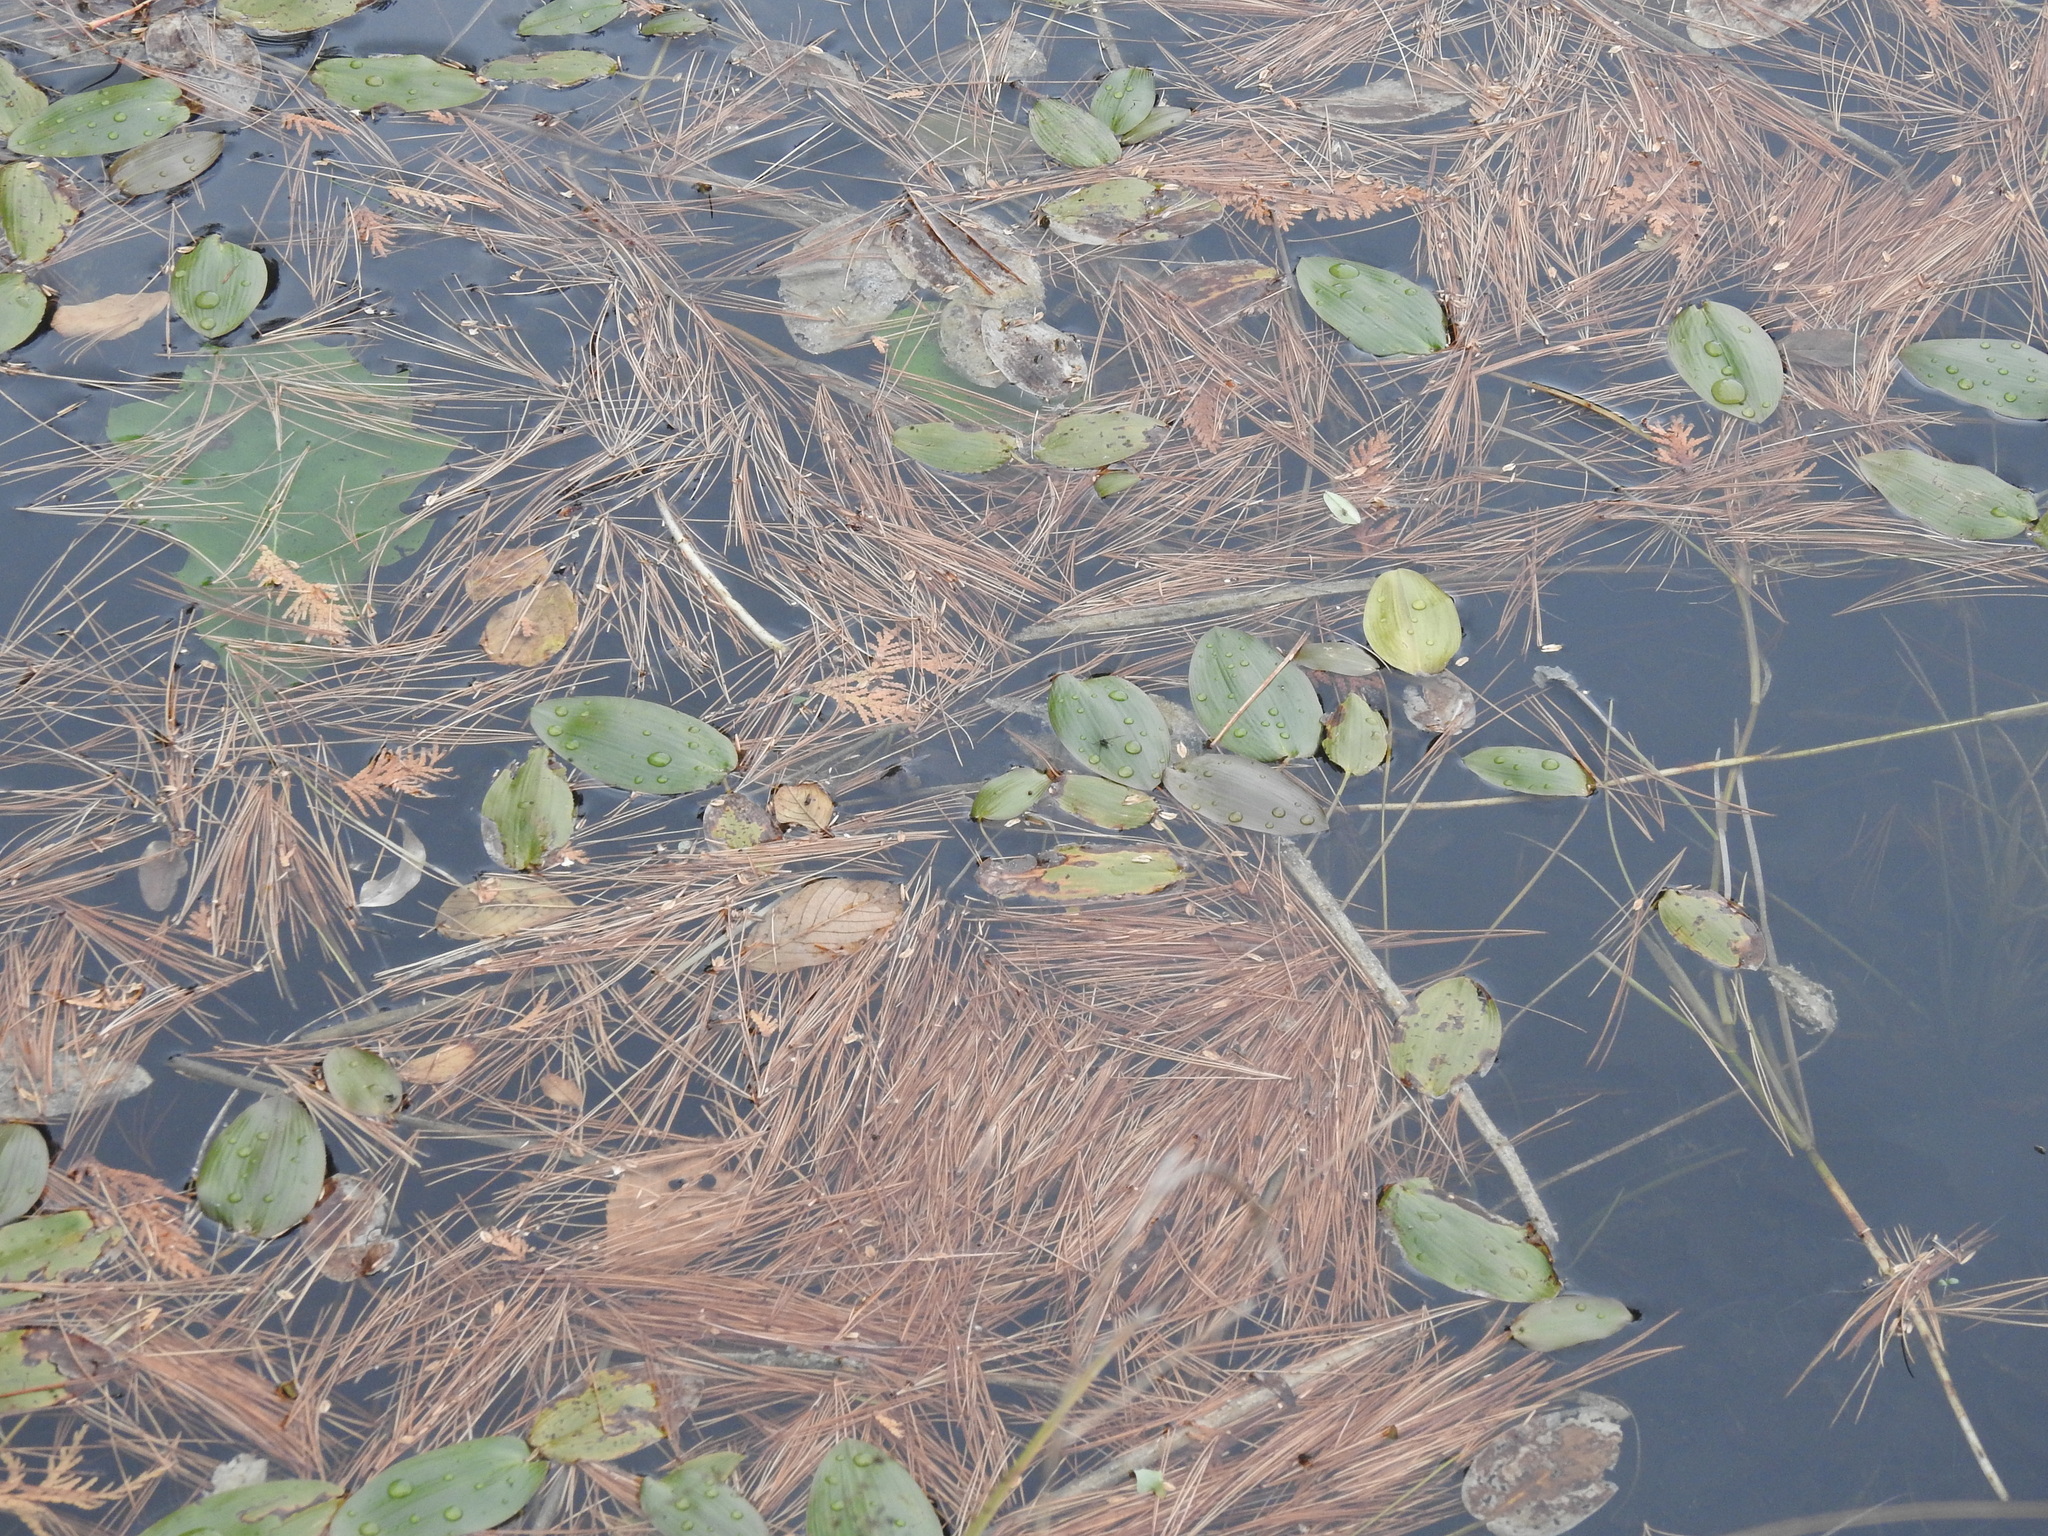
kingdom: Plantae
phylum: Tracheophyta
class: Liliopsida
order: Alismatales
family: Potamogetonaceae
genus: Potamogeton
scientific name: Potamogeton natans
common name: Broad-leaved pondweed
